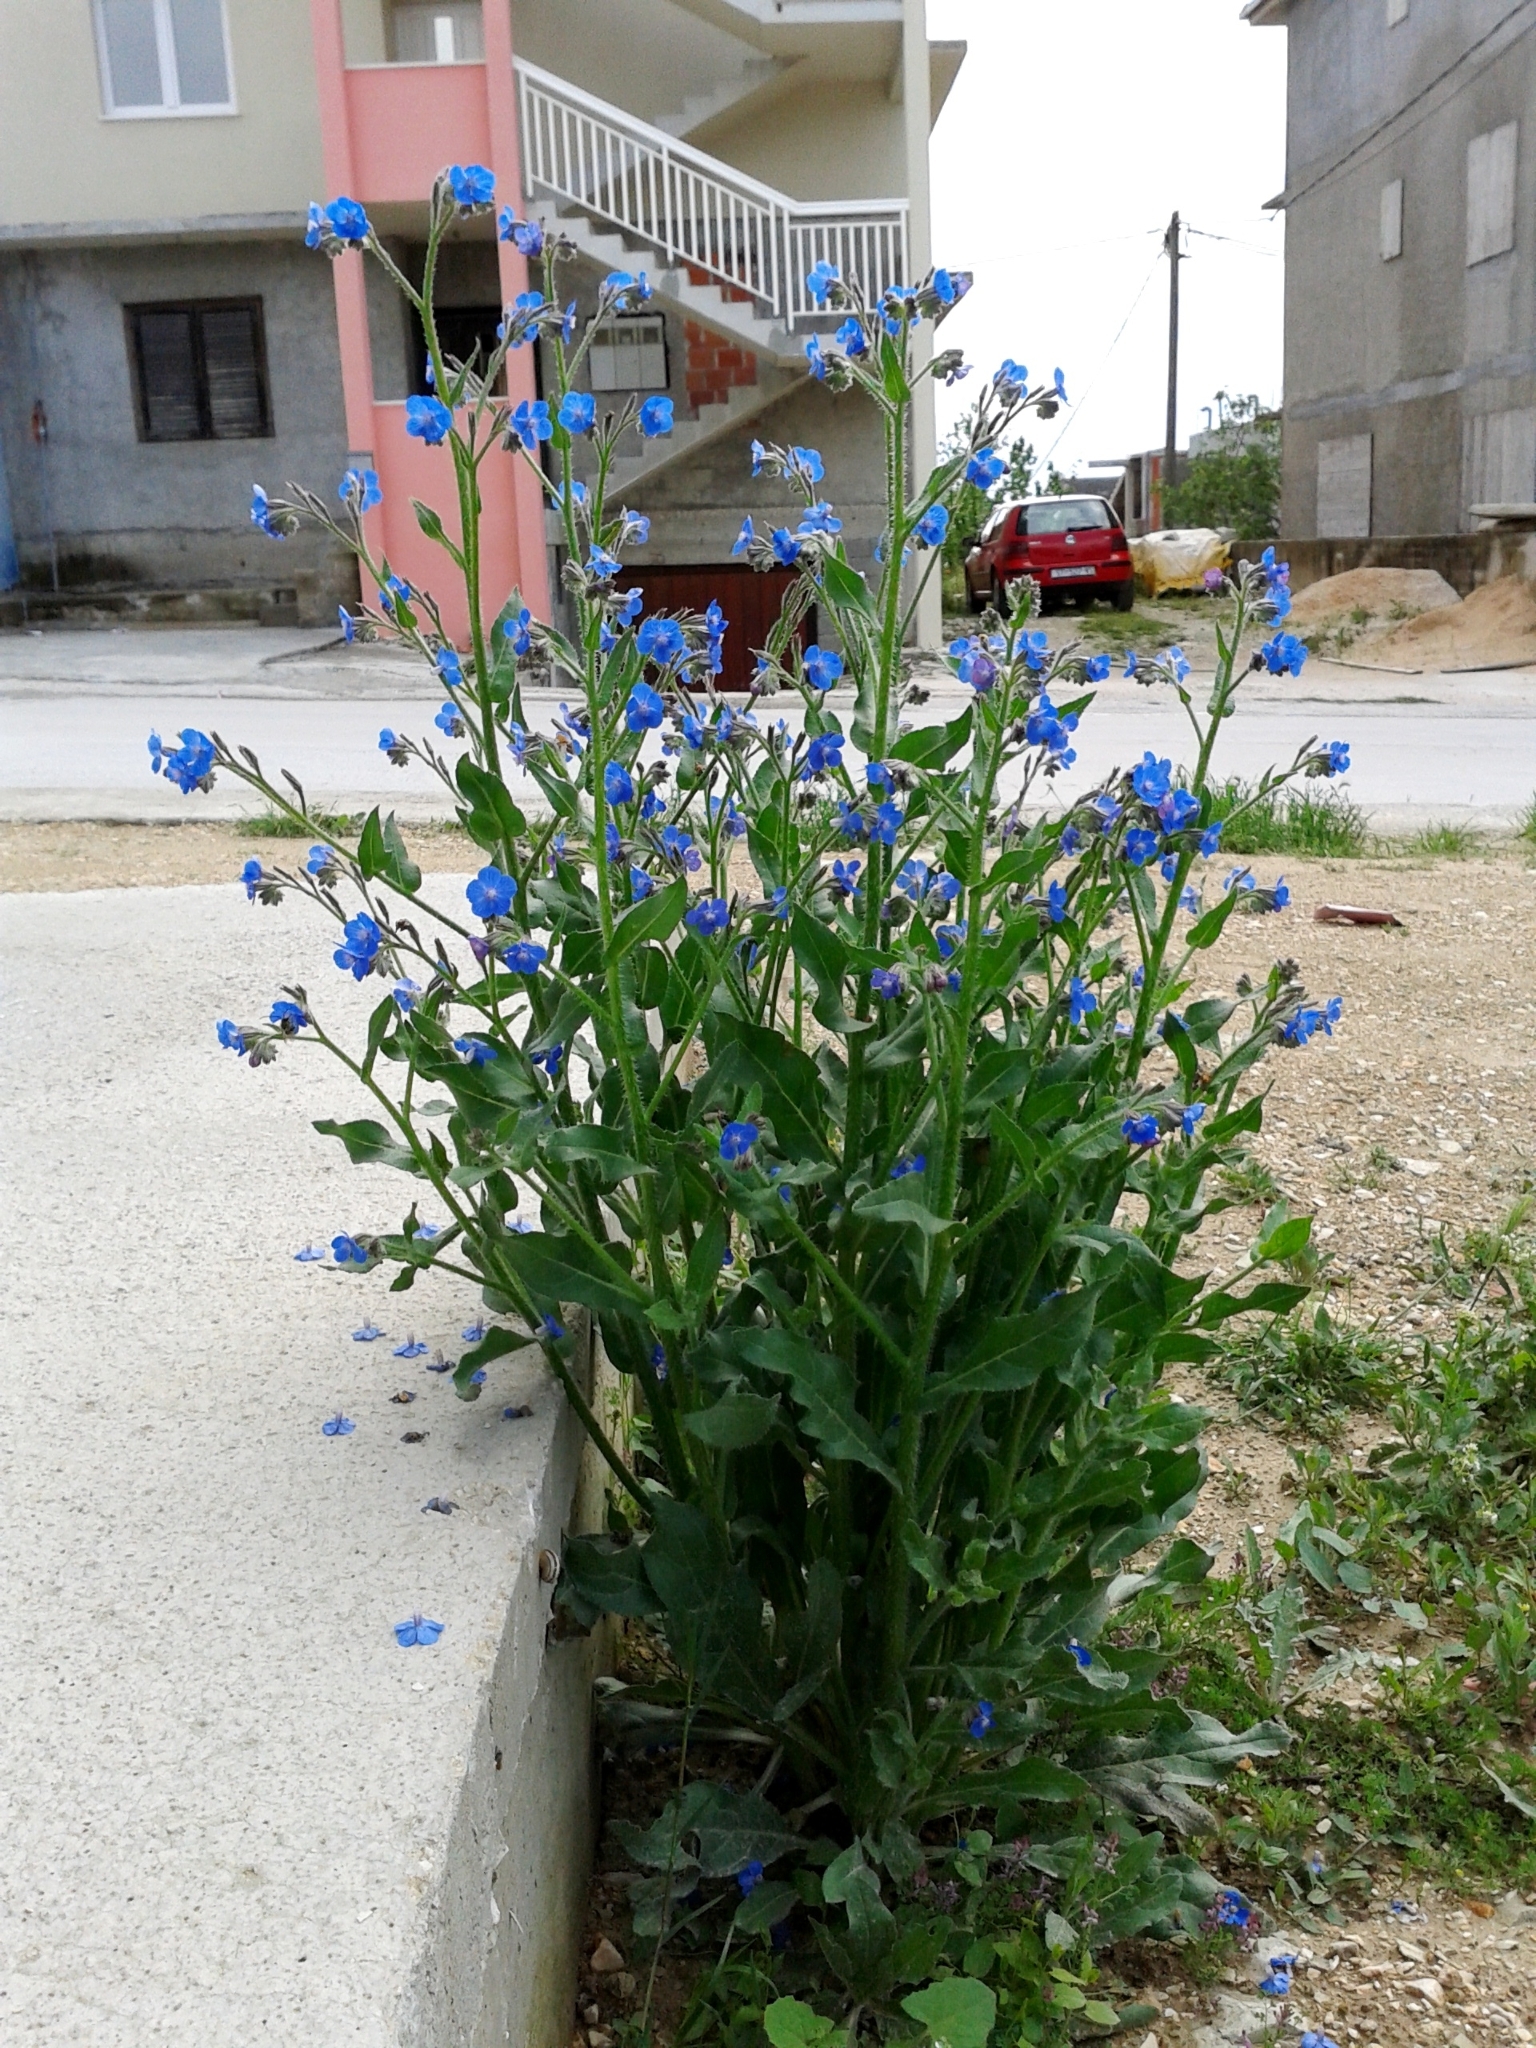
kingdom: Plantae
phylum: Tracheophyta
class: Magnoliopsida
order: Boraginales
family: Boraginaceae
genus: Anchusa
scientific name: Anchusa azurea
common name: Garden anchusa
